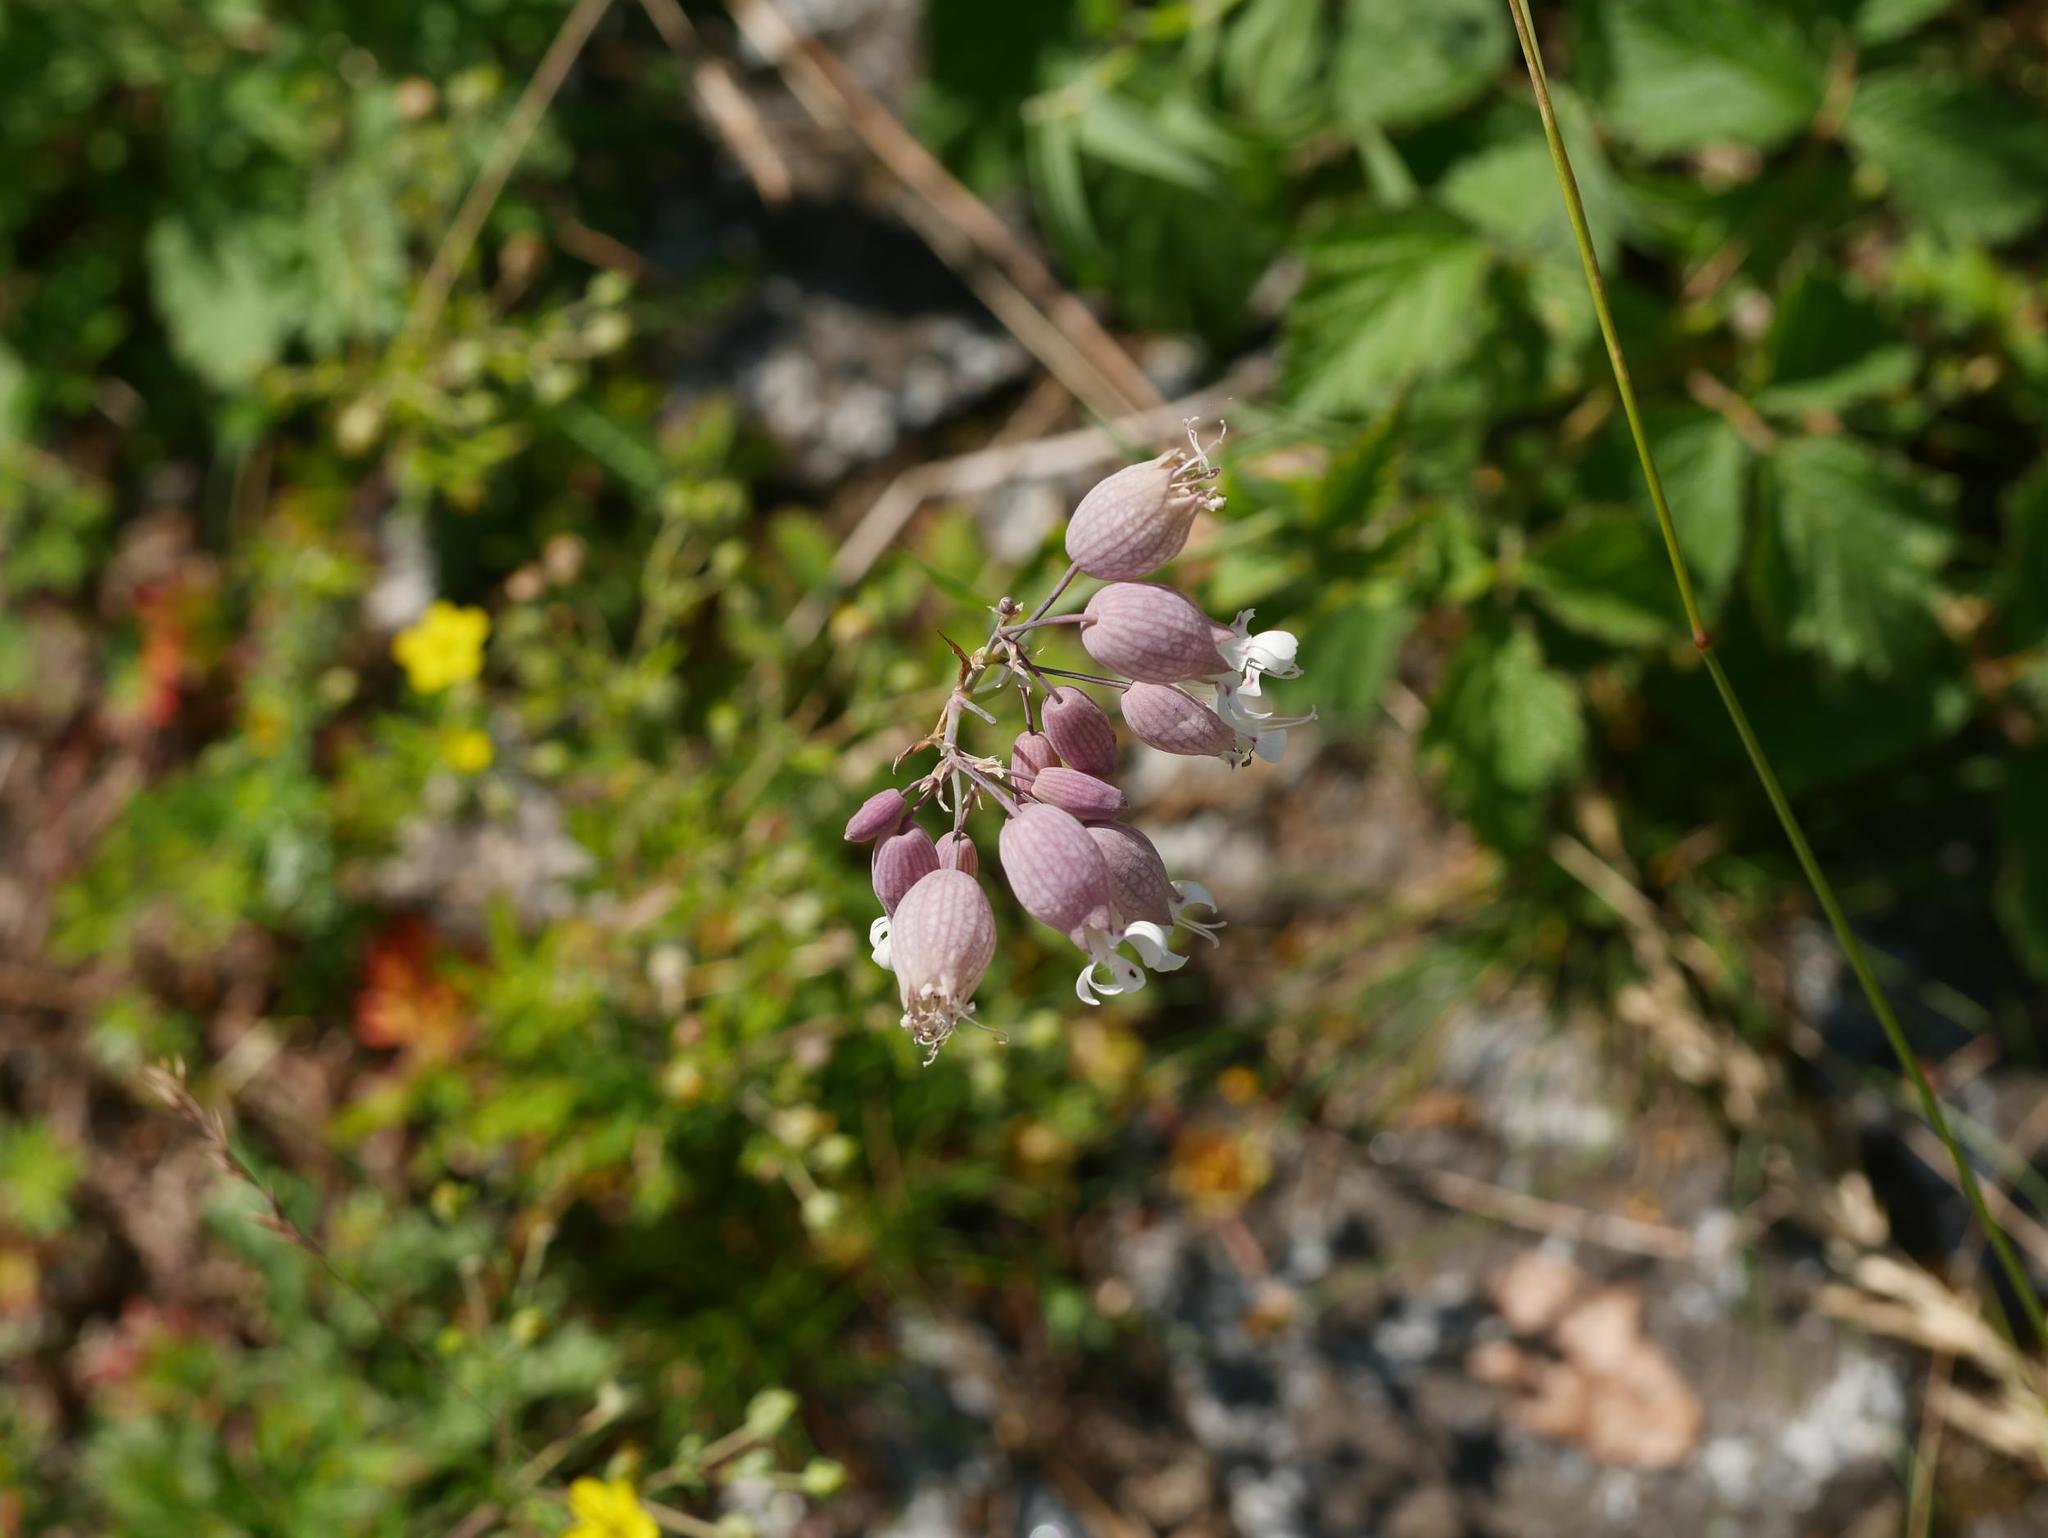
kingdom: Plantae
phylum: Tracheophyta
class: Magnoliopsida
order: Caryophyllales
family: Caryophyllaceae
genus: Silene
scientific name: Silene vulgaris
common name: Bladder campion
